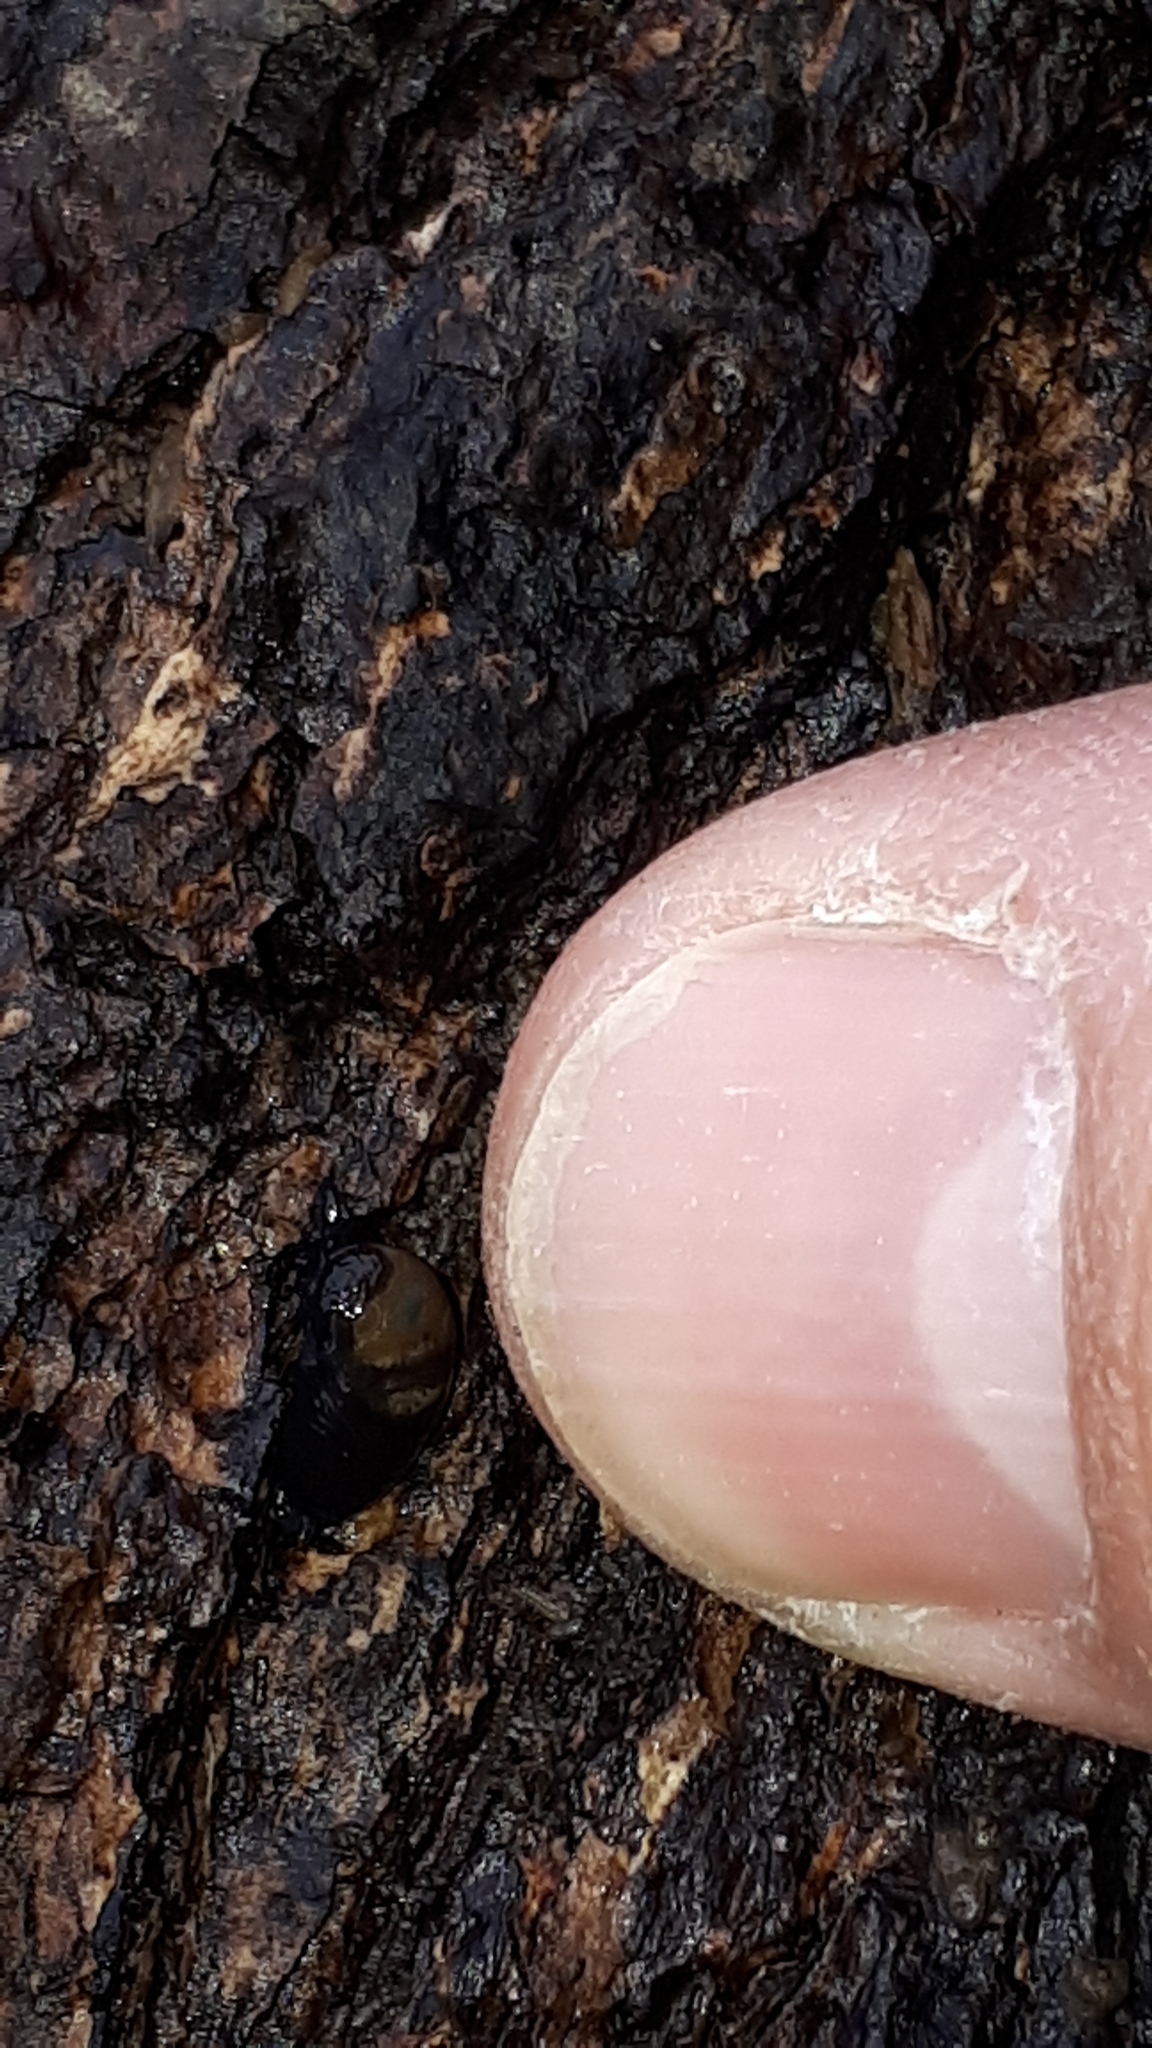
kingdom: Animalia
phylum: Mollusca
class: Gastropoda
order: Stylommatophora
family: Vitrinidae
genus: Eucobresia
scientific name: Eucobresia diaphana
